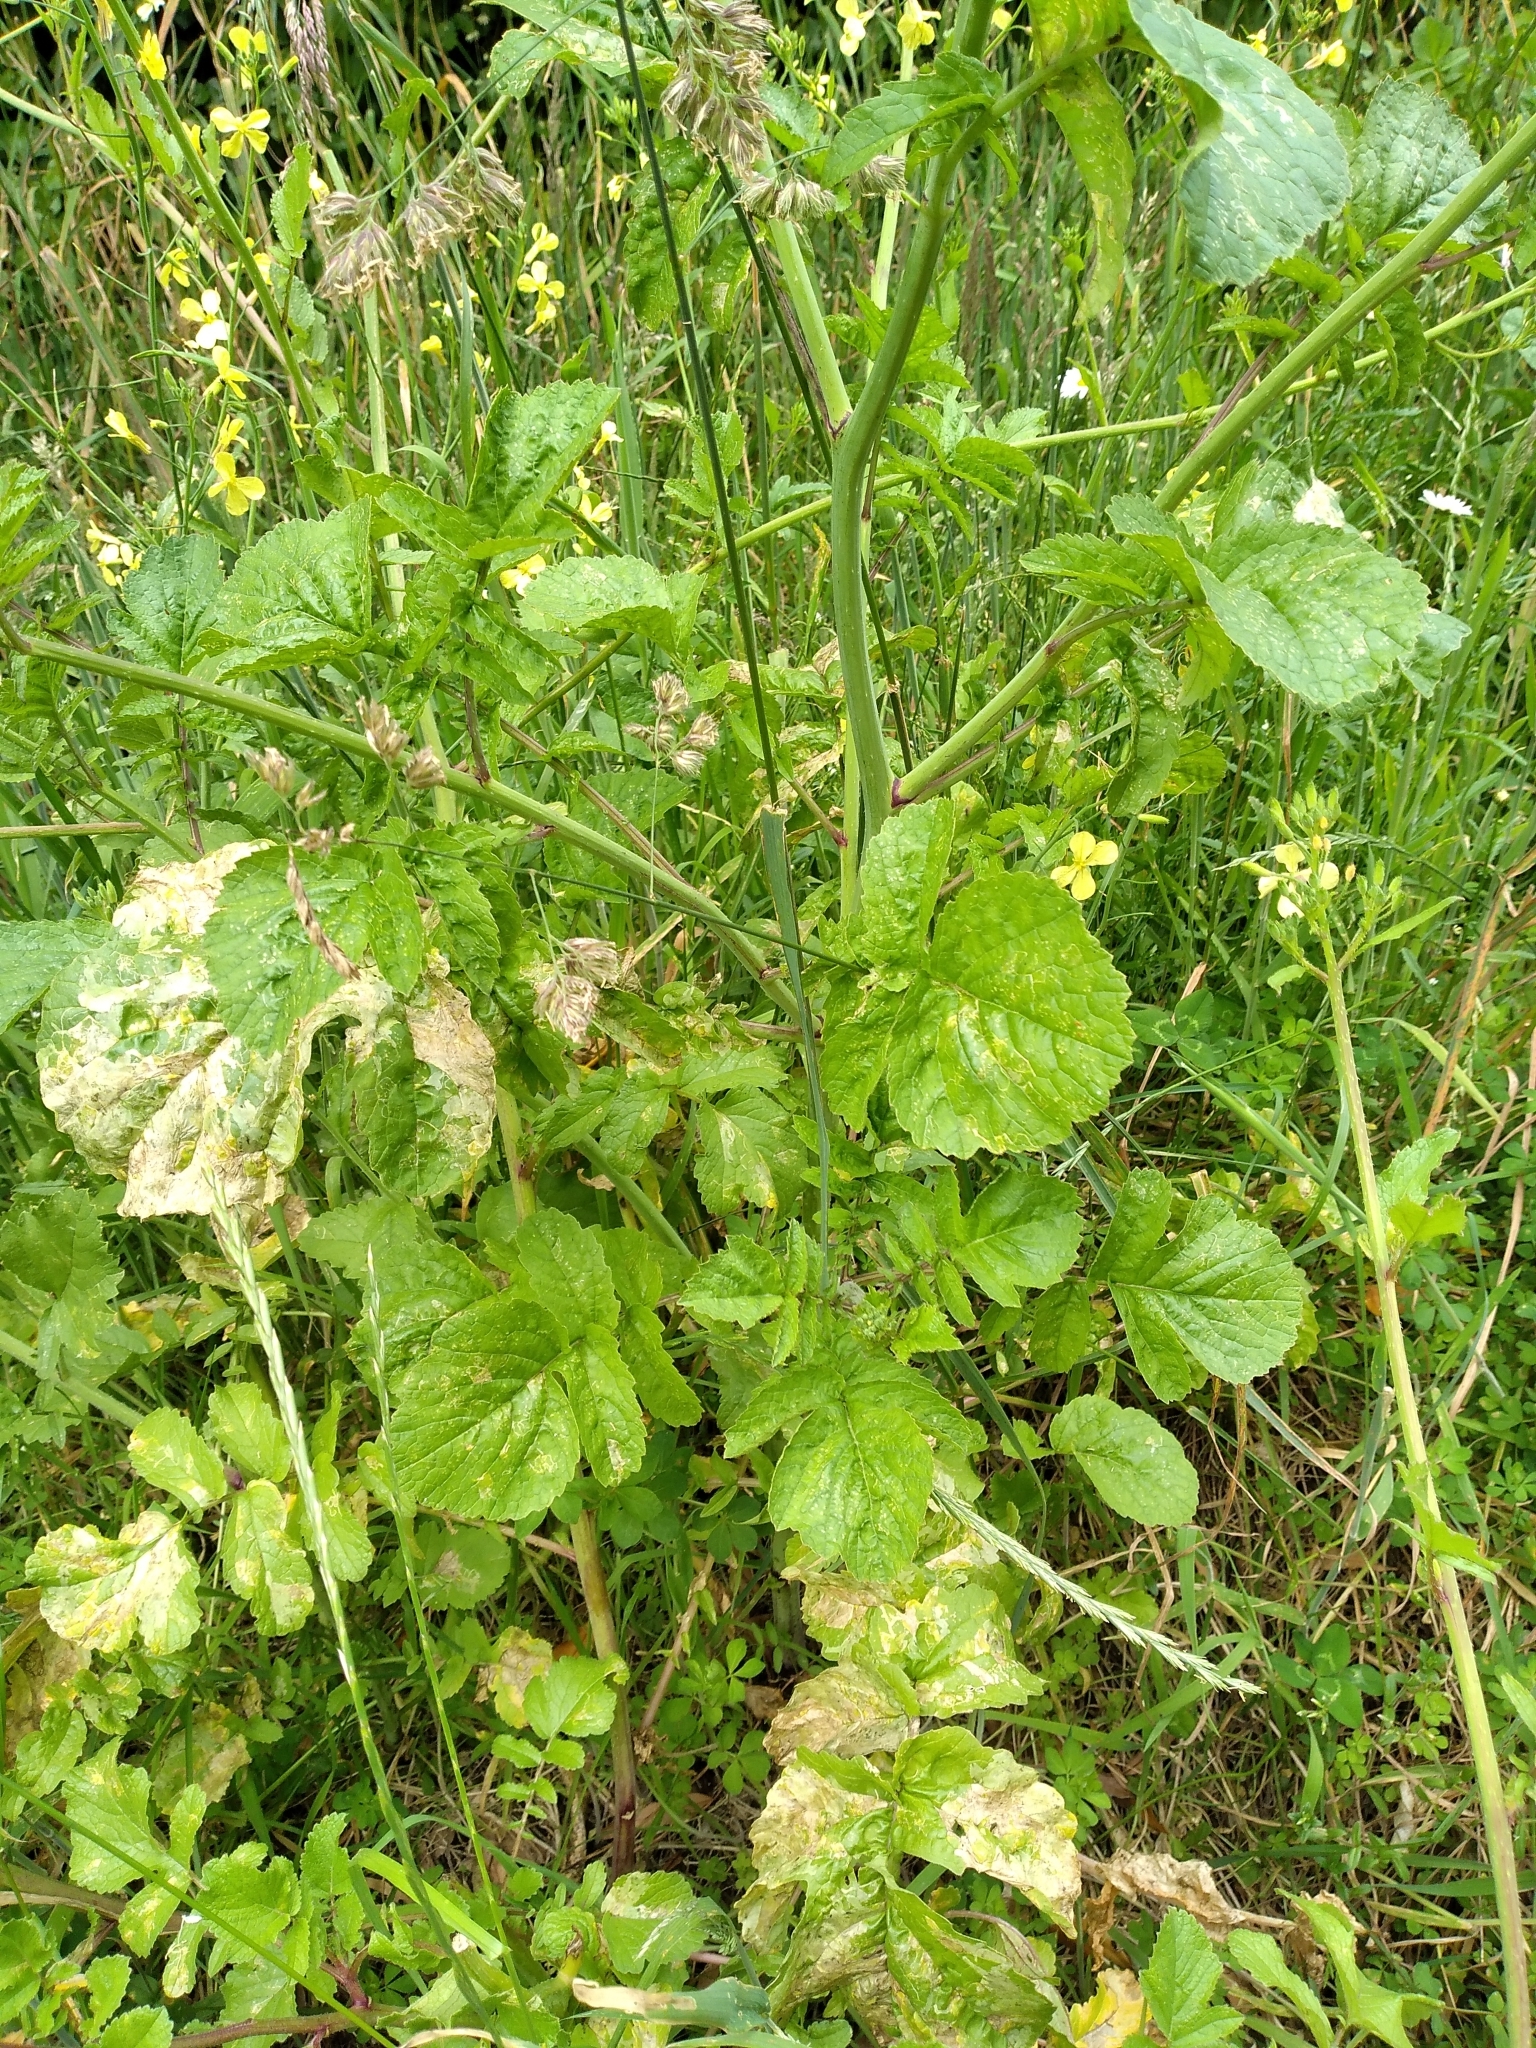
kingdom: Plantae
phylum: Tracheophyta
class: Magnoliopsida
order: Brassicales
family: Brassicaceae
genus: Raphanus
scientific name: Raphanus raphanistrum
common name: Wild radish
